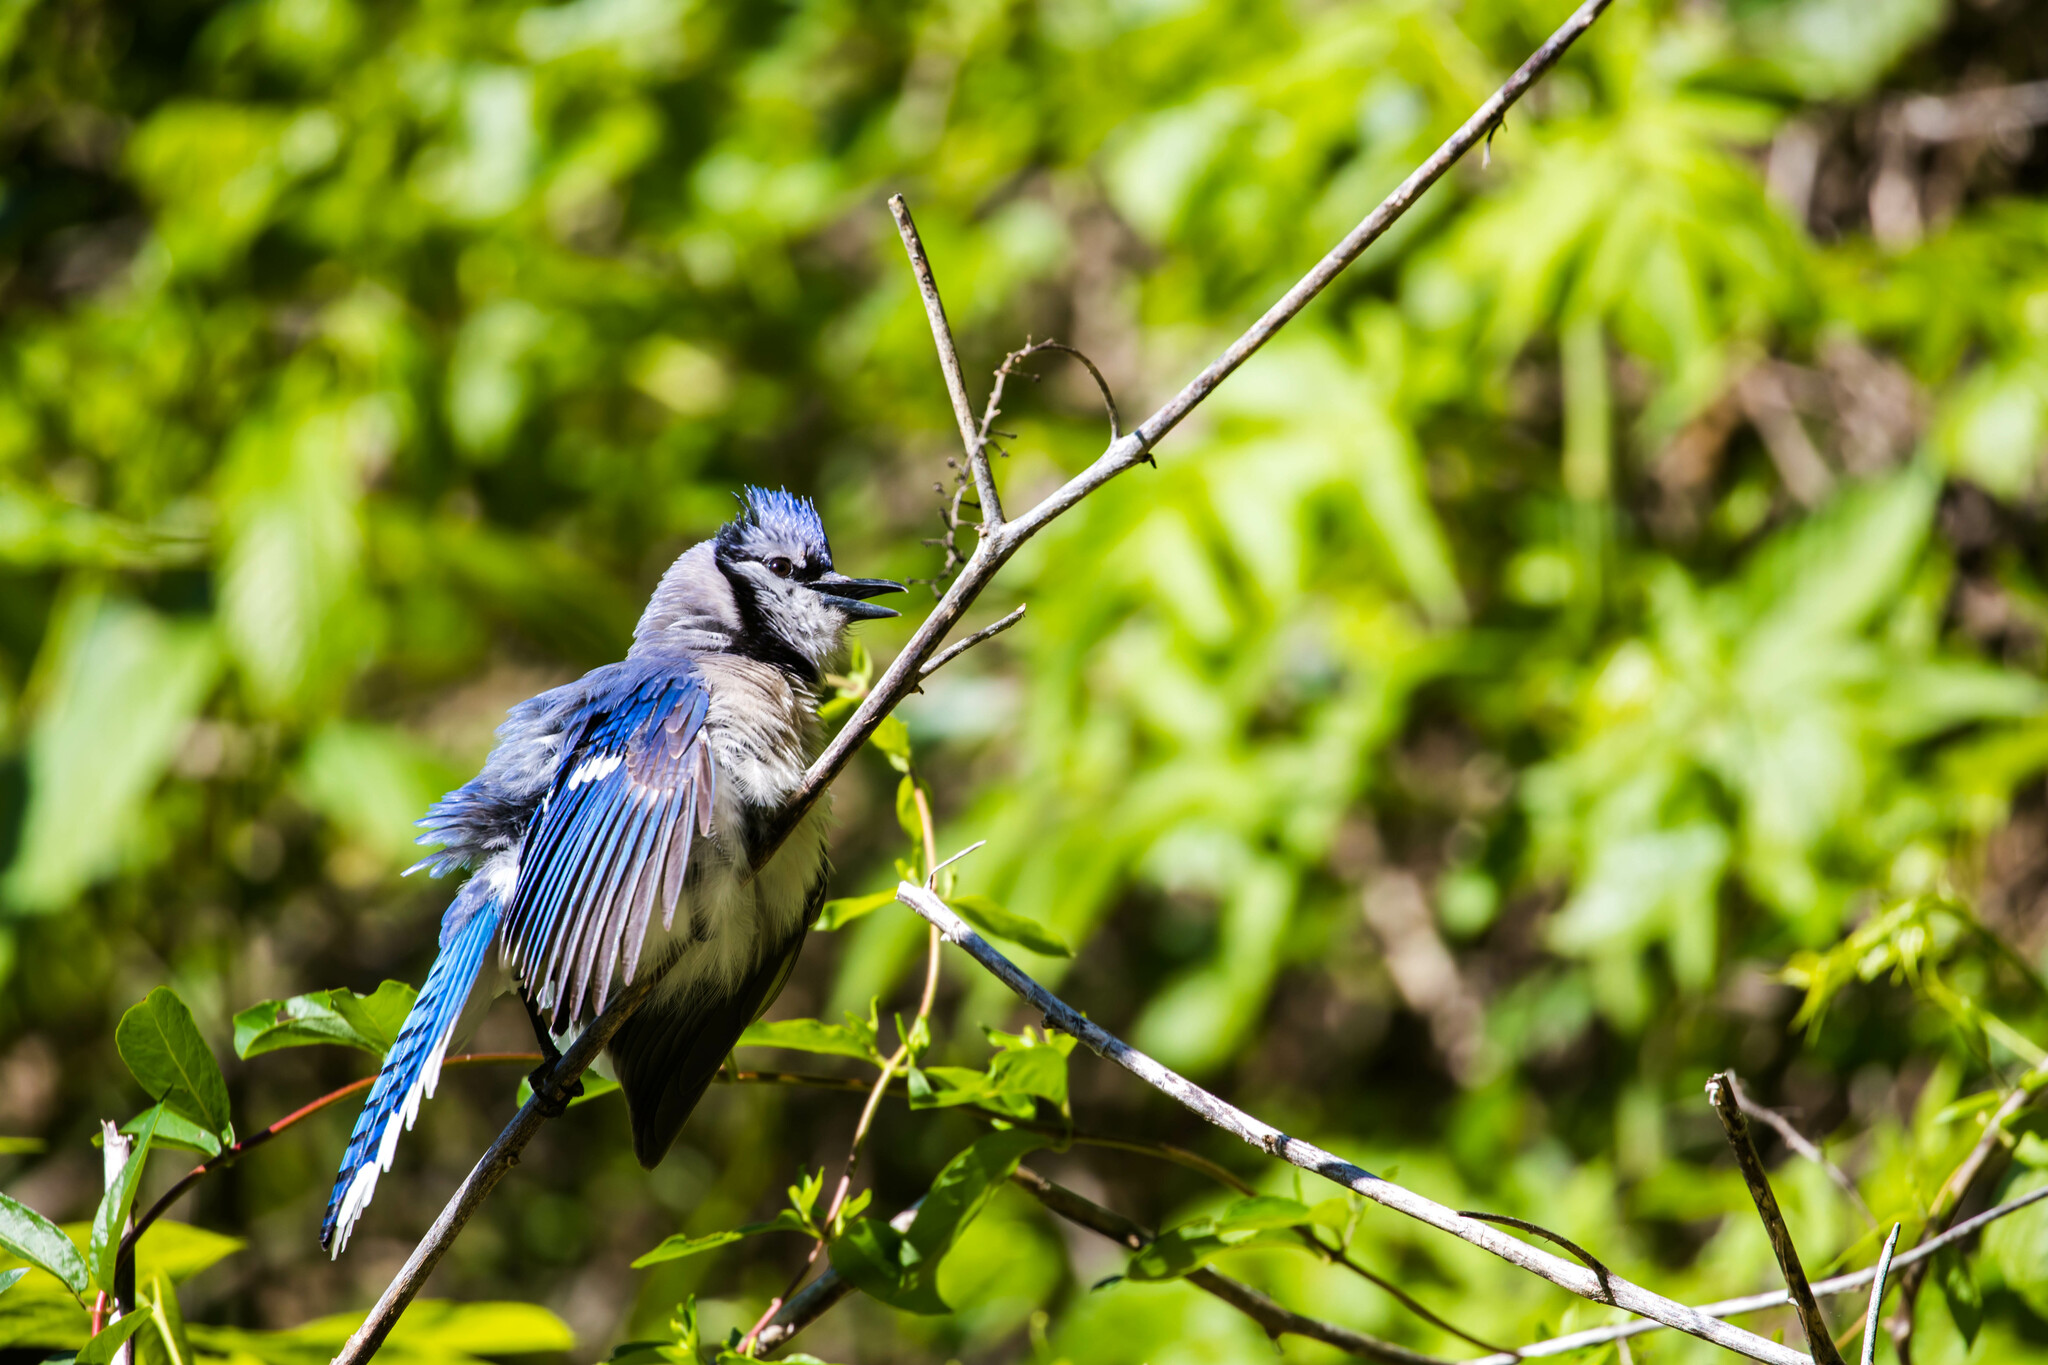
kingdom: Animalia
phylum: Chordata
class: Aves
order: Passeriformes
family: Corvidae
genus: Cyanocitta
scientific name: Cyanocitta cristata
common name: Blue jay
